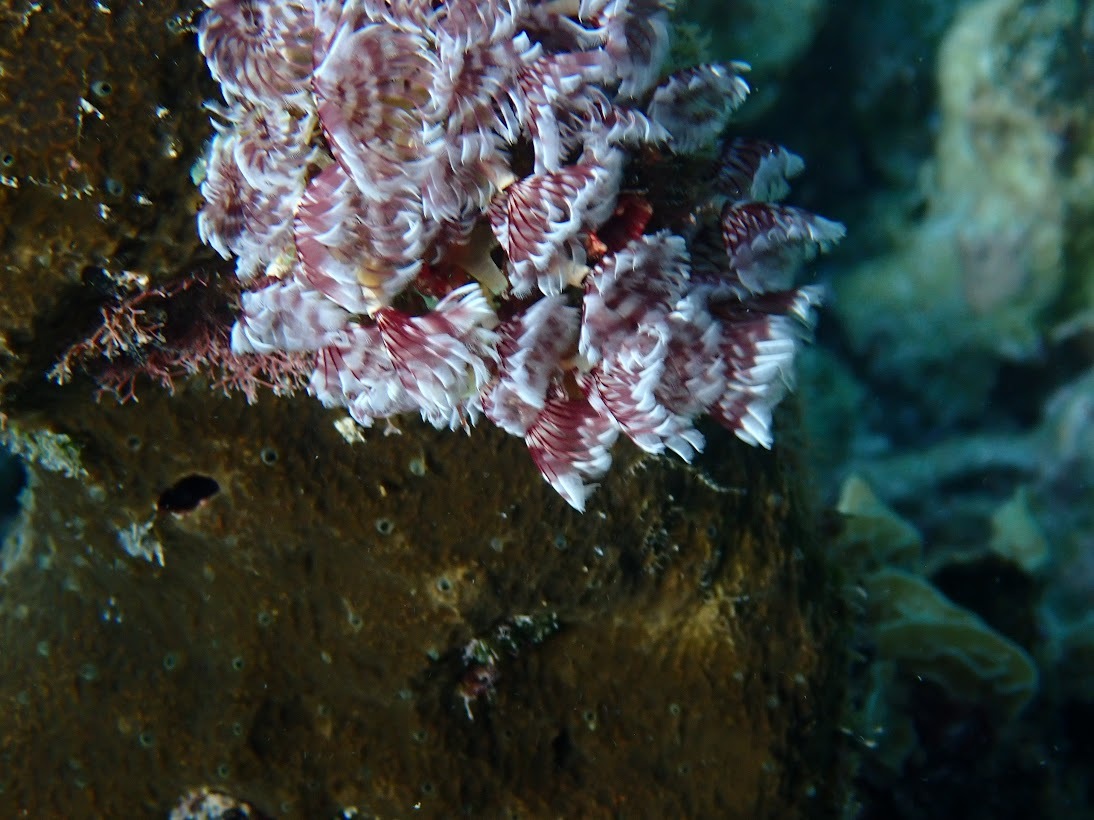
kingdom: Animalia
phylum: Annelida
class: Polychaeta
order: Sabellida
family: Sabellidae
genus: Bispira
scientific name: Bispira brunnea
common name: Social feather duster
